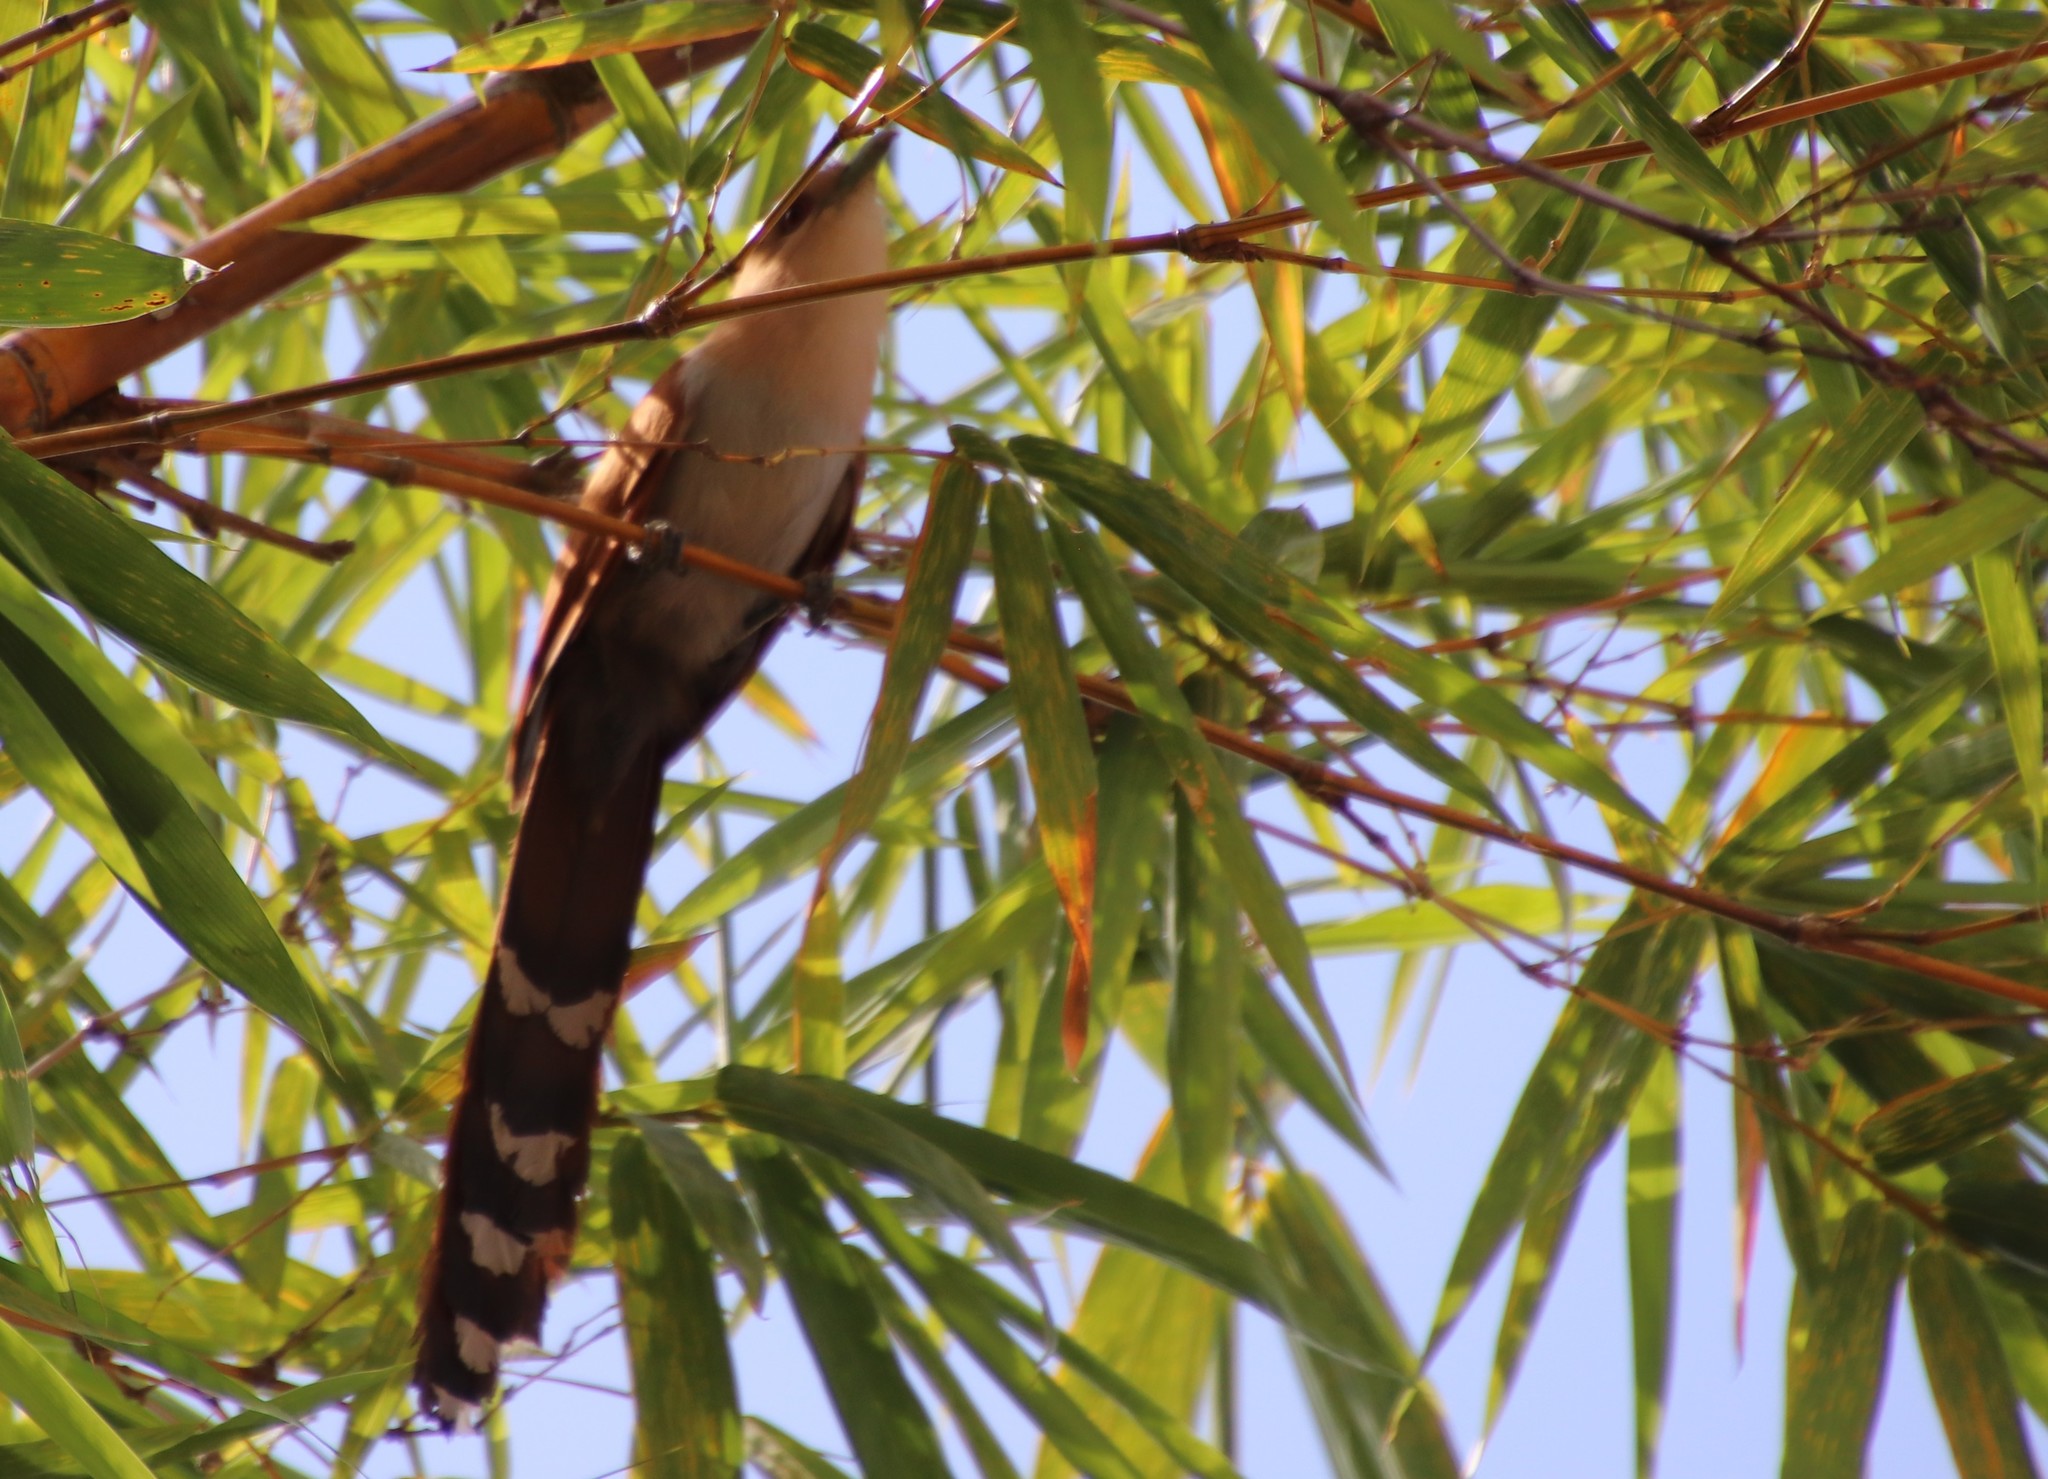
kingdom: Animalia
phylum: Chordata
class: Aves
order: Cuculiformes
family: Cuculidae
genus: Piaya
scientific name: Piaya cayana
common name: Squirrel cuckoo
